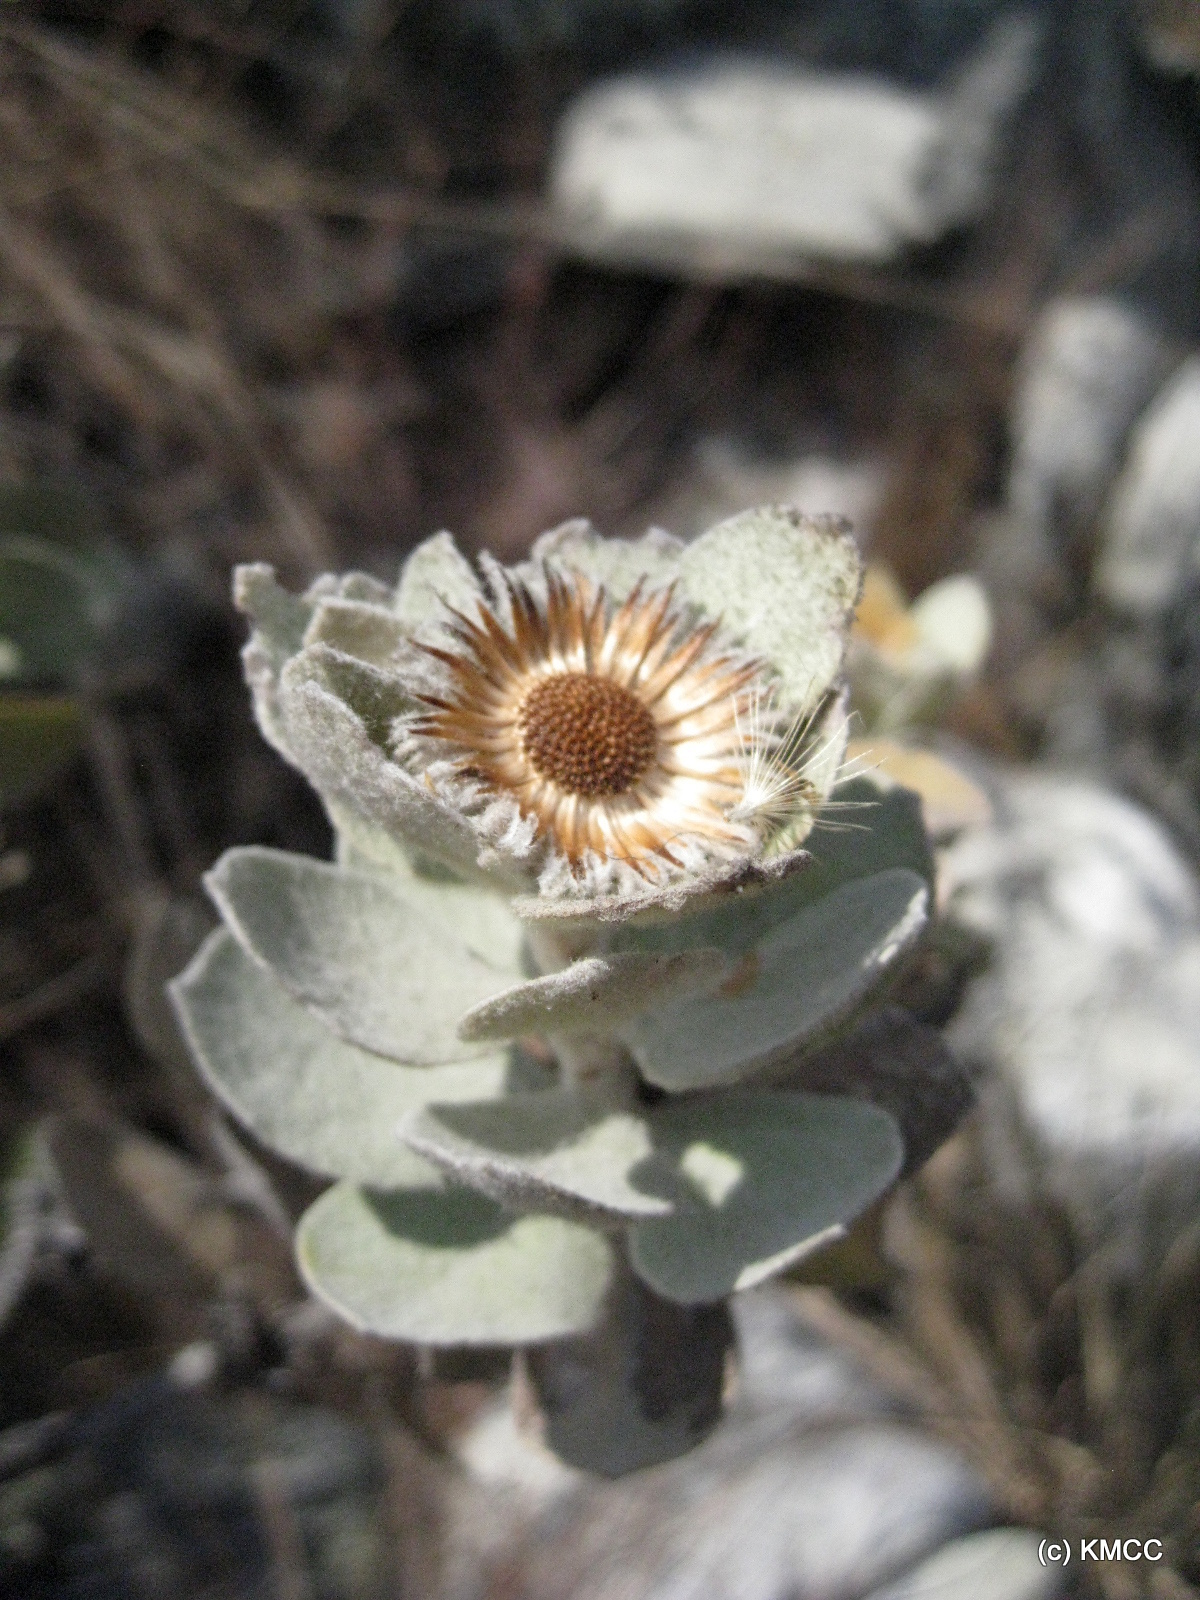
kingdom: Plantae
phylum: Tracheophyta
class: Magnoliopsida
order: Asterales
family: Asteraceae
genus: Distephanus
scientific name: Distephanus eriophyllus
